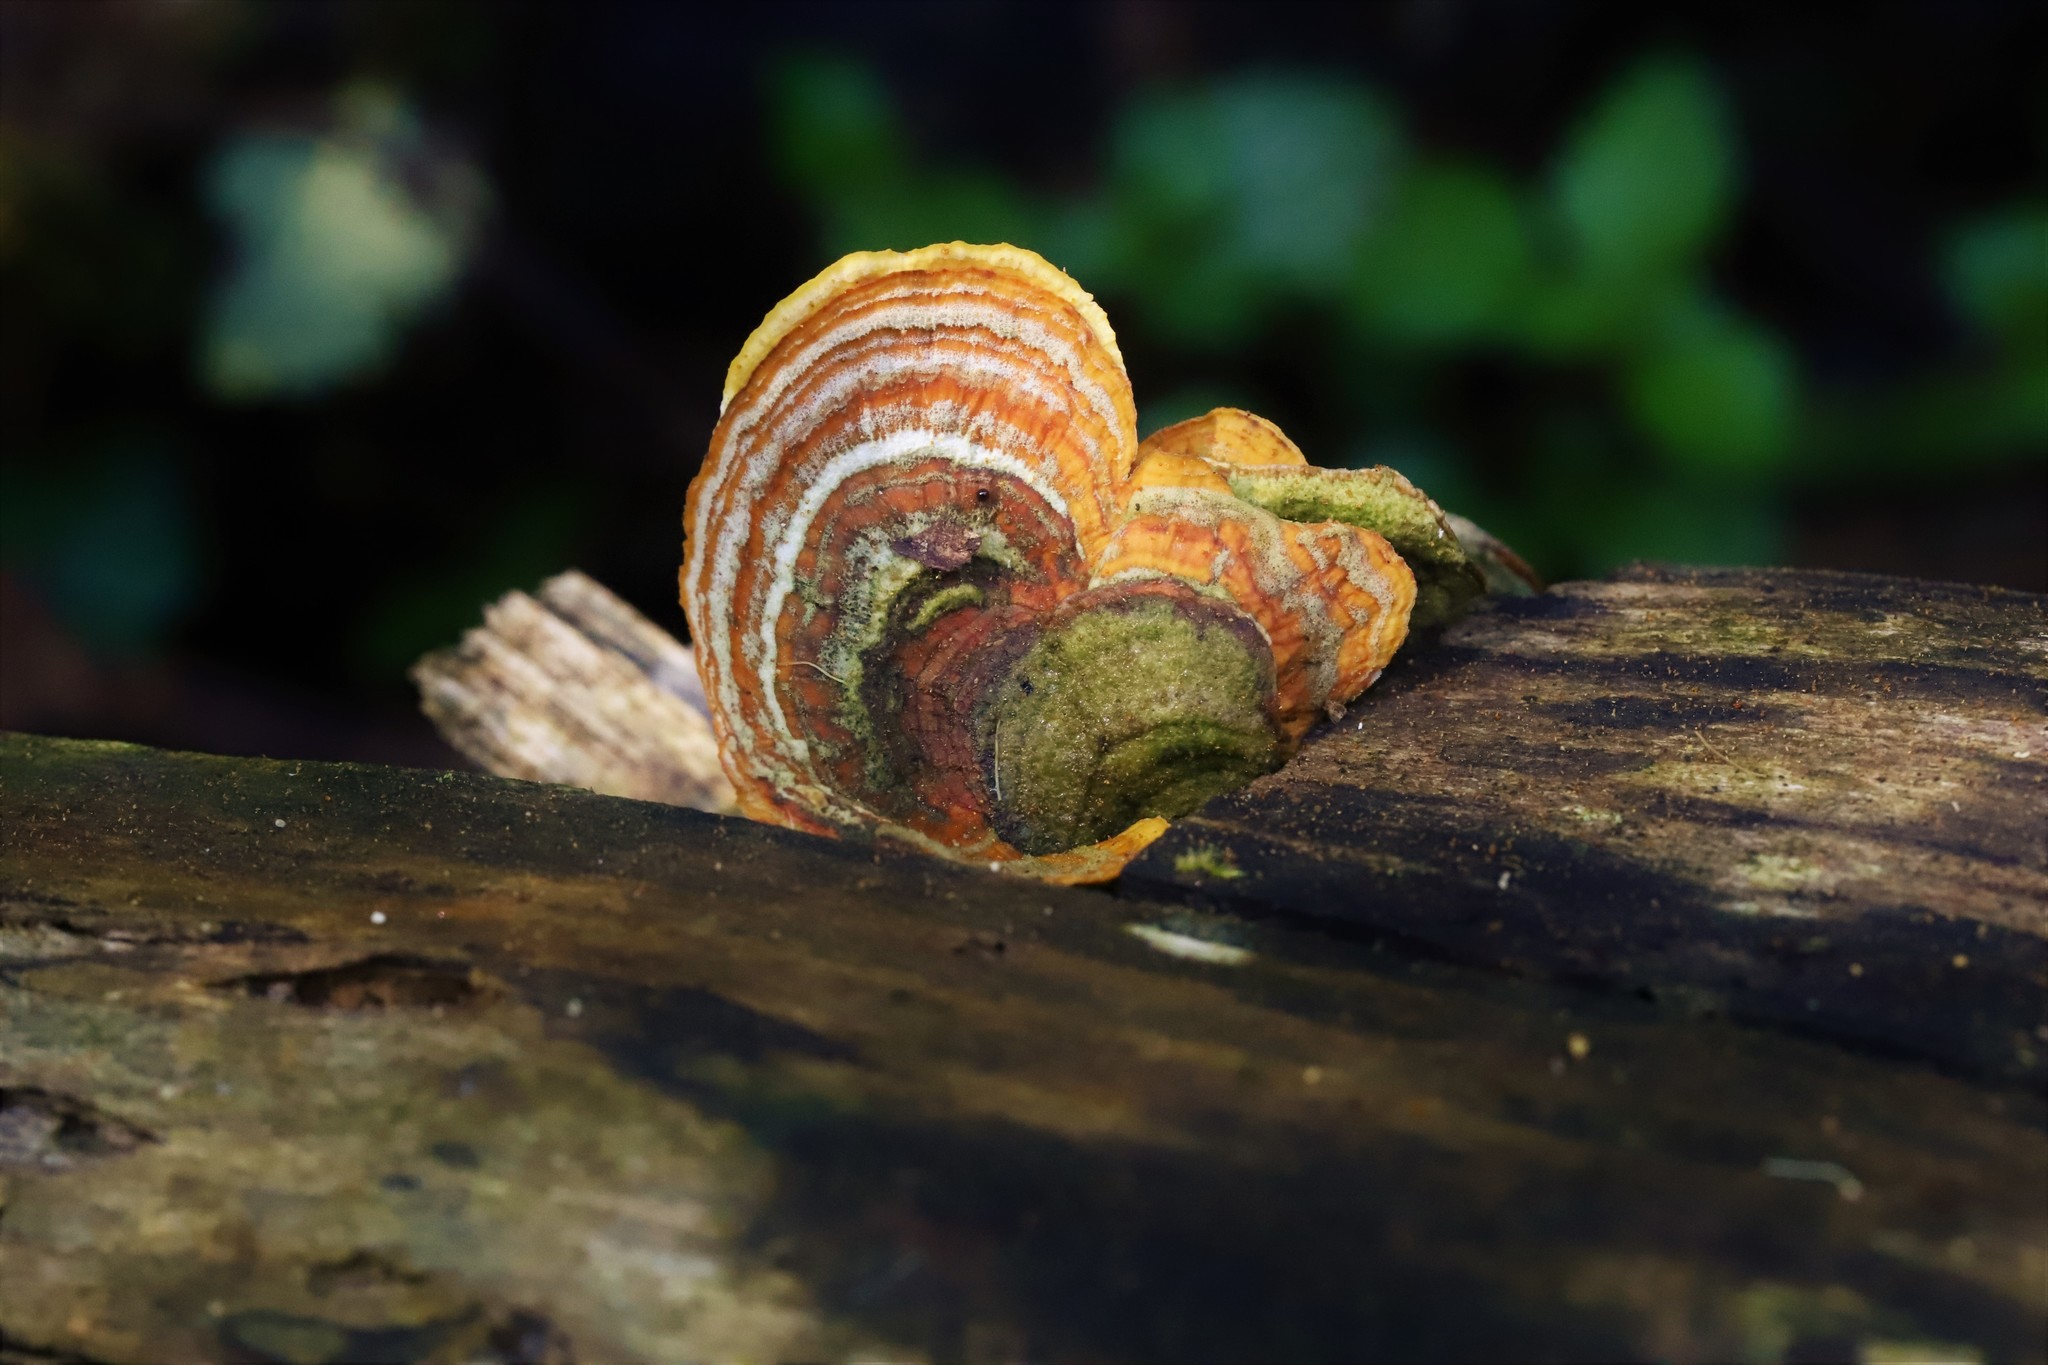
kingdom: Fungi
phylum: Basidiomycota
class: Agaricomycetes
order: Russulales
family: Stereaceae
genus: Stereum
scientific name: Stereum versicolor
